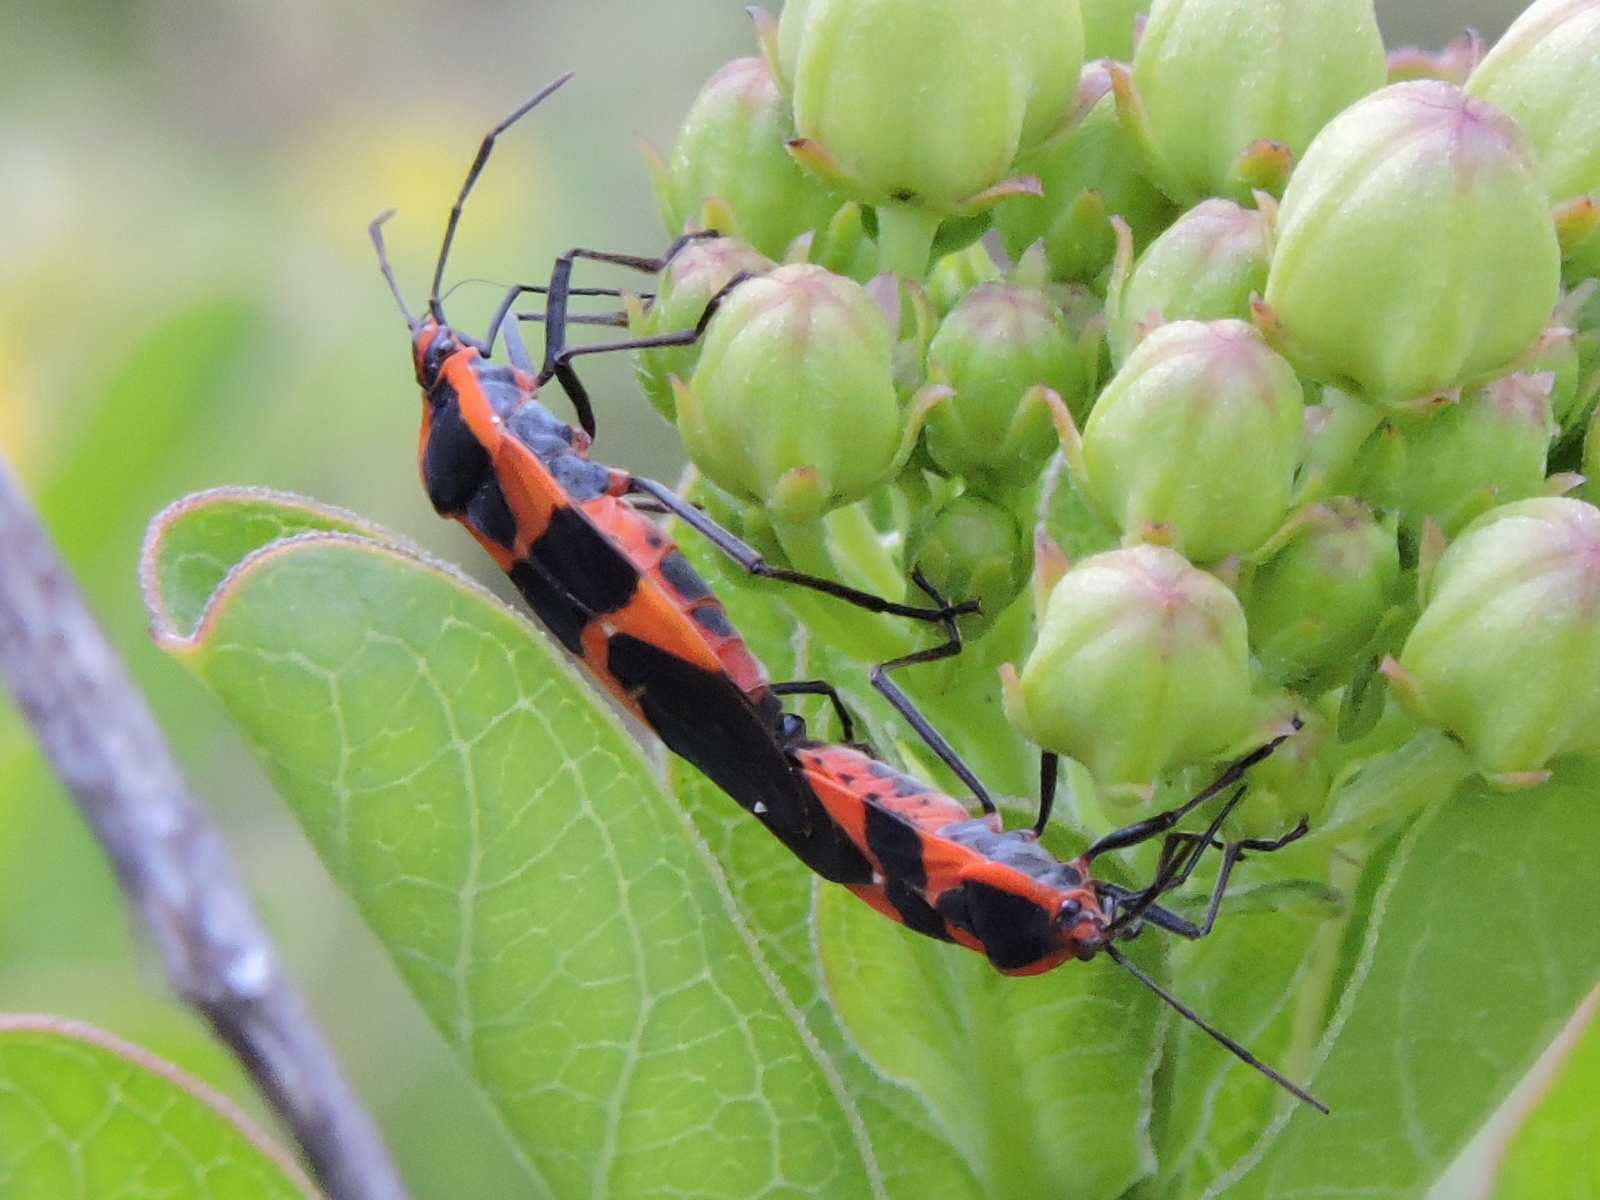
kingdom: Animalia
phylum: Arthropoda
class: Insecta
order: Hemiptera
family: Lygaeidae
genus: Oncopeltus
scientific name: Oncopeltus fasciatus
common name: Large milkweed bug
